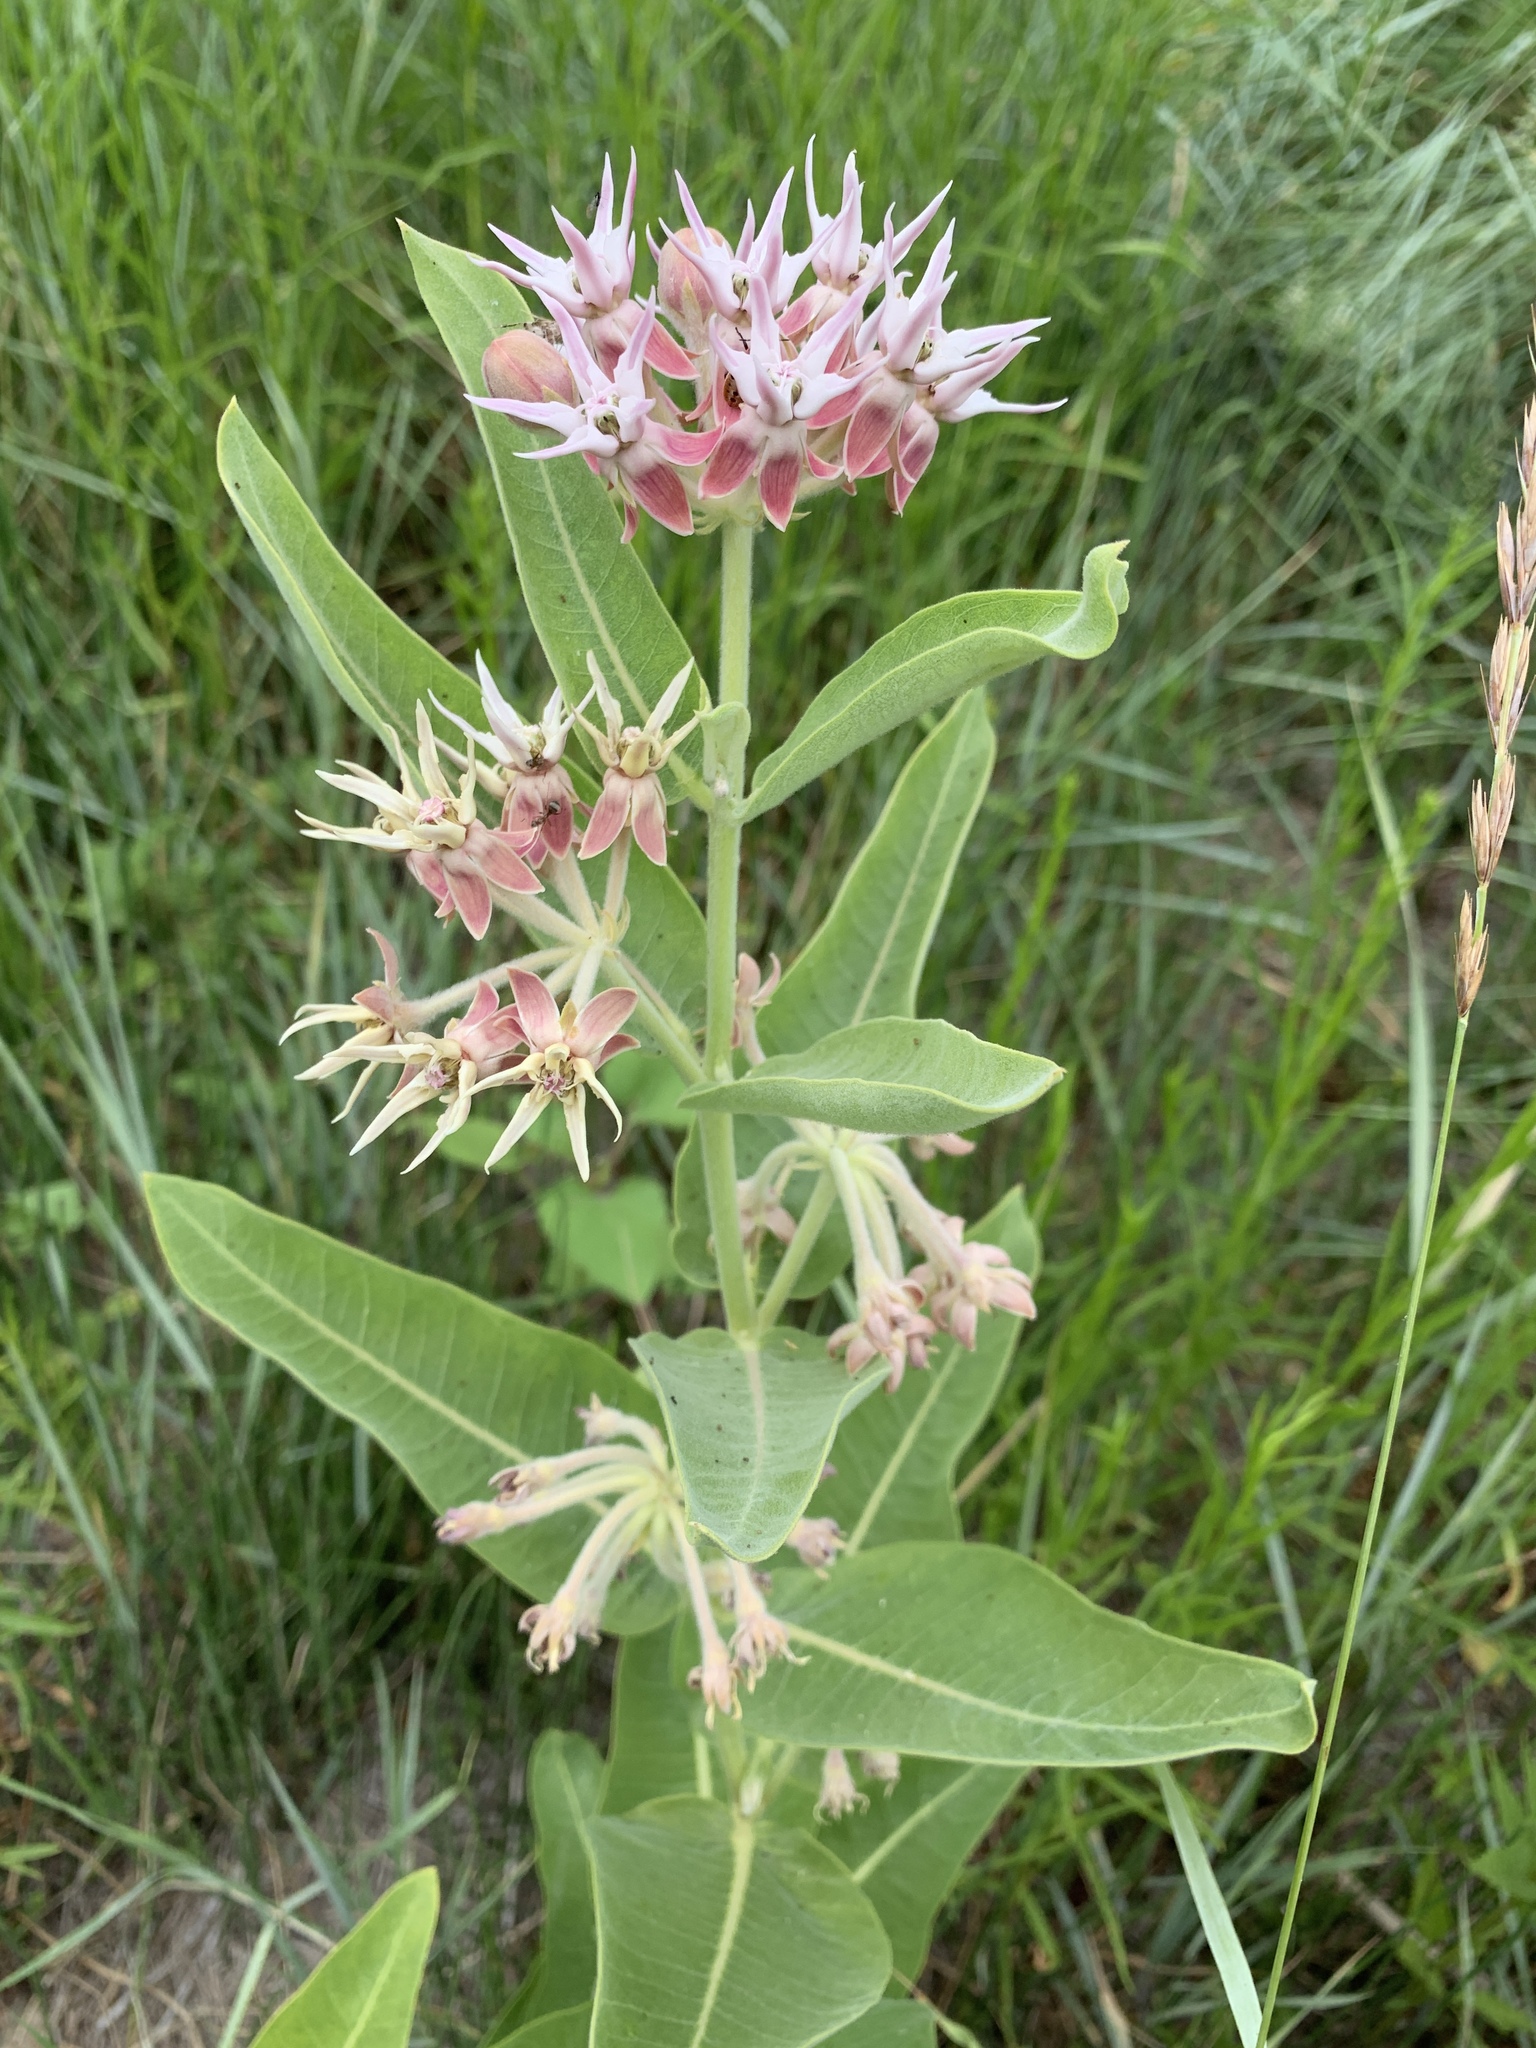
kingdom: Plantae
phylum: Tracheophyta
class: Magnoliopsida
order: Gentianales
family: Apocynaceae
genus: Asclepias
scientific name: Asclepias speciosa
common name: Showy milkweed
